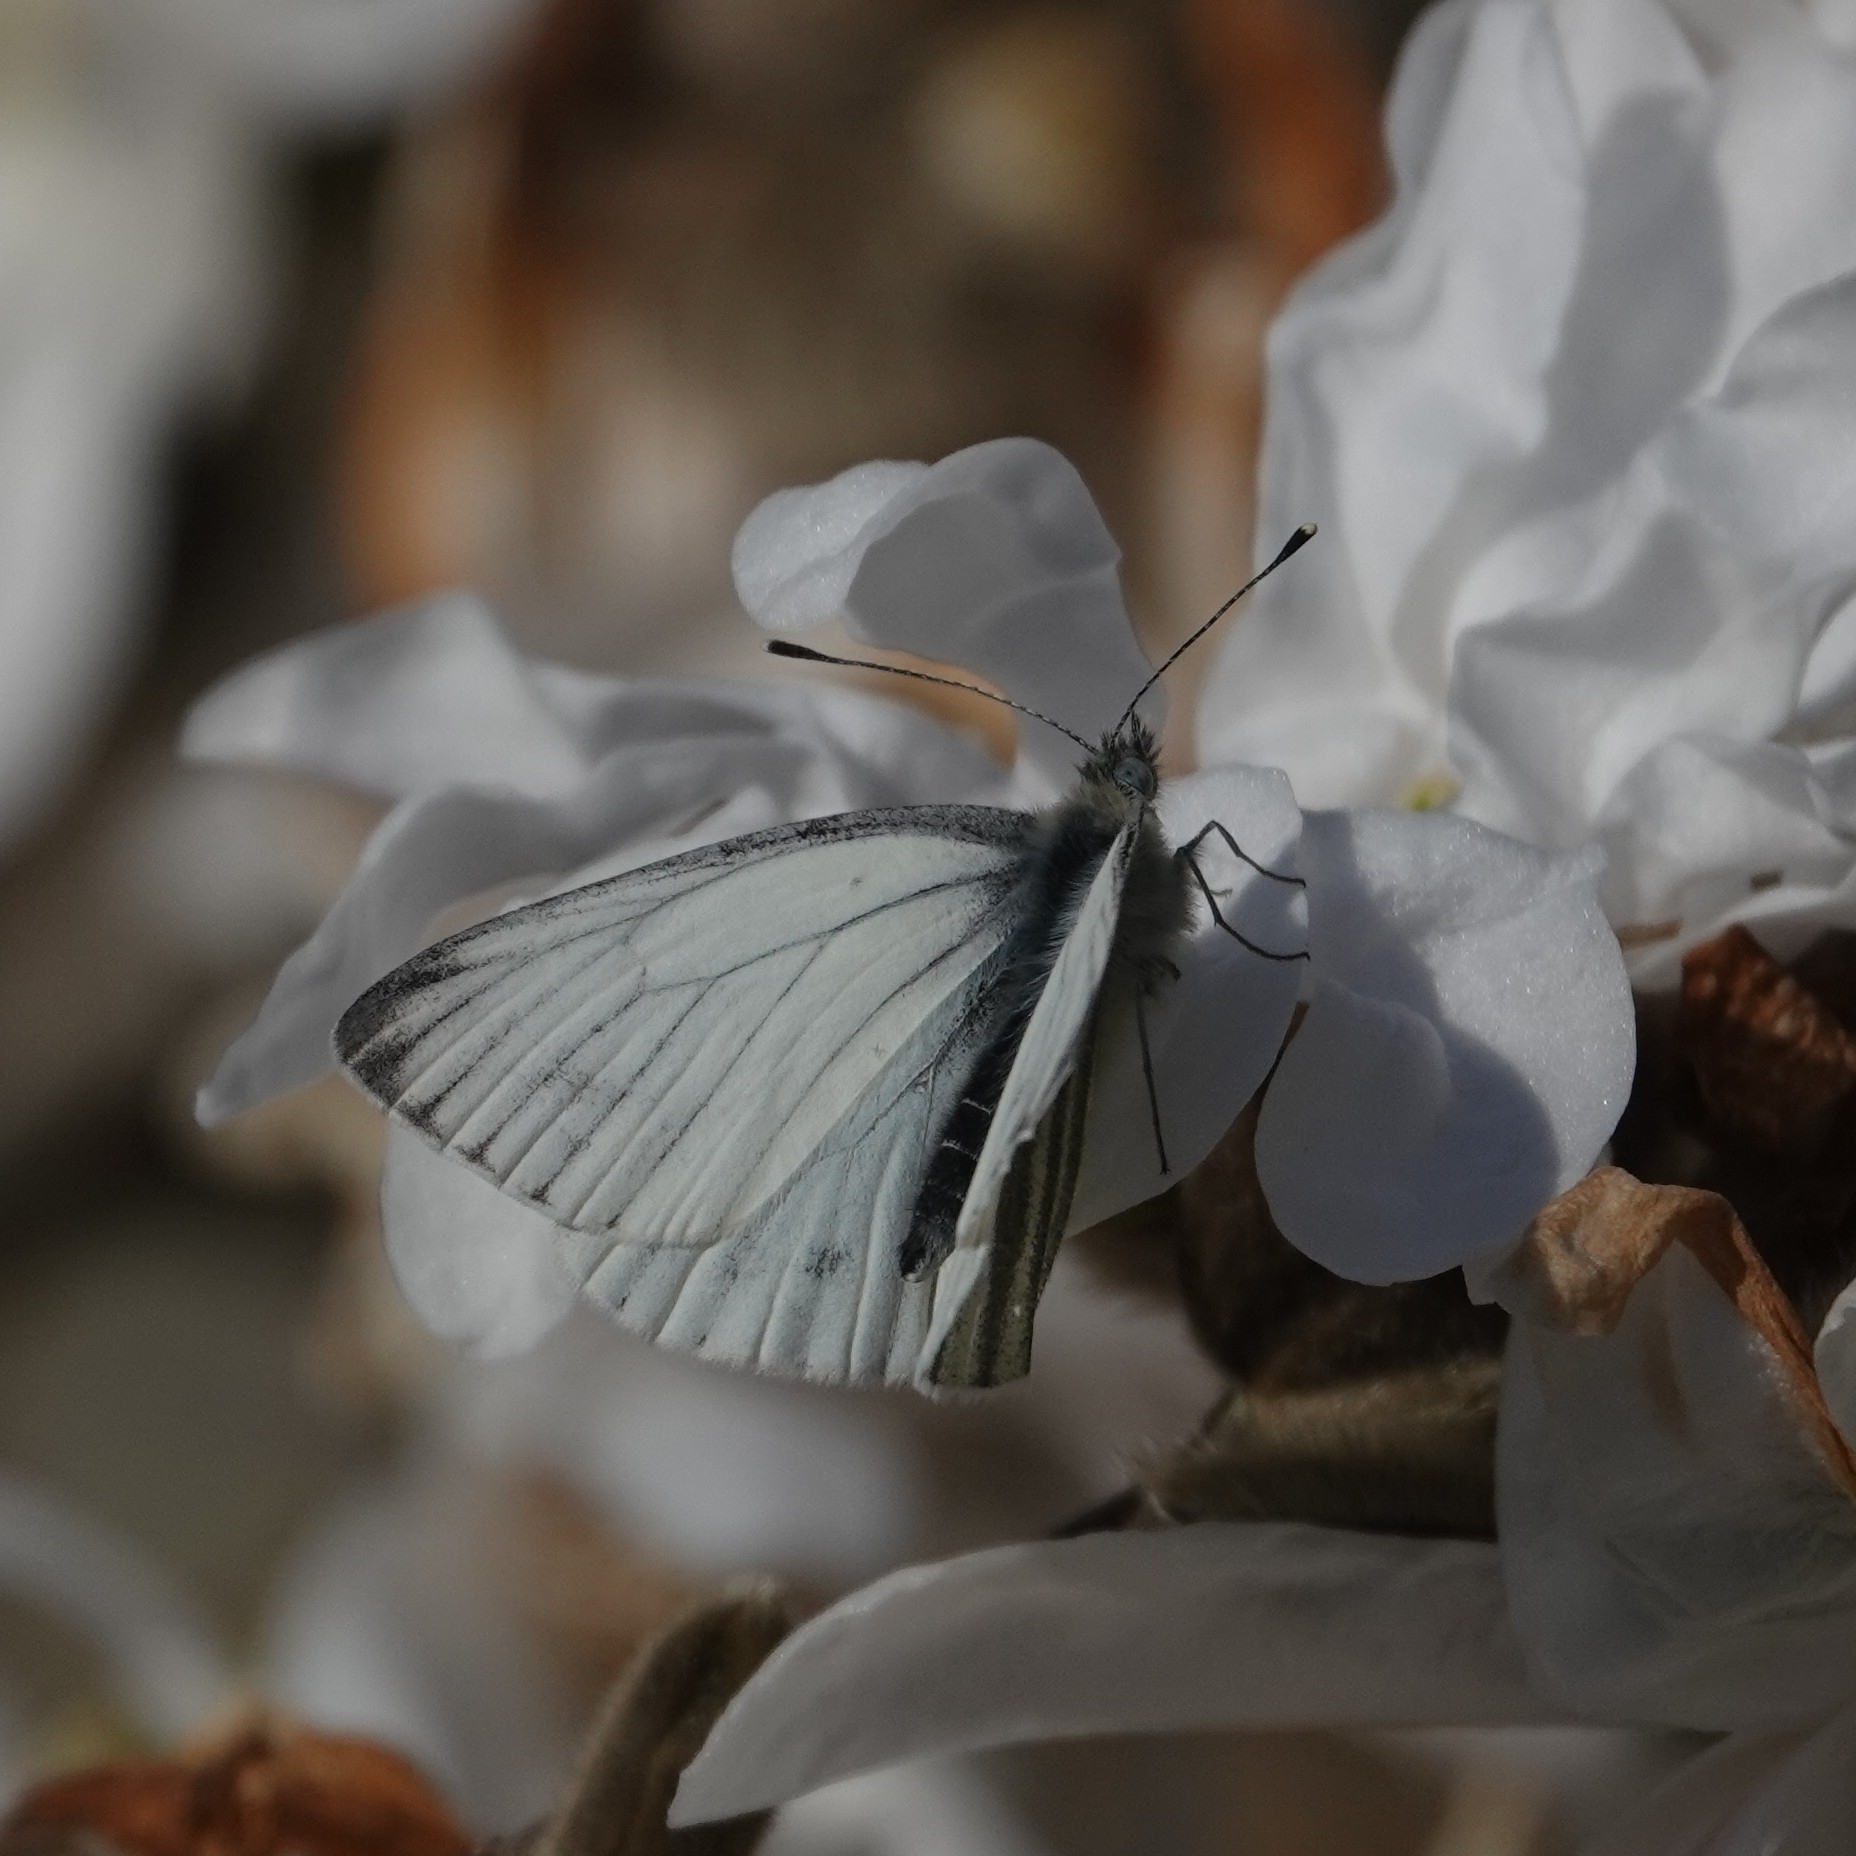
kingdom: Animalia
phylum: Arthropoda
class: Insecta
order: Lepidoptera
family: Pieridae
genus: Pieris
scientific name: Pieris napi
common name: Green-veined white
